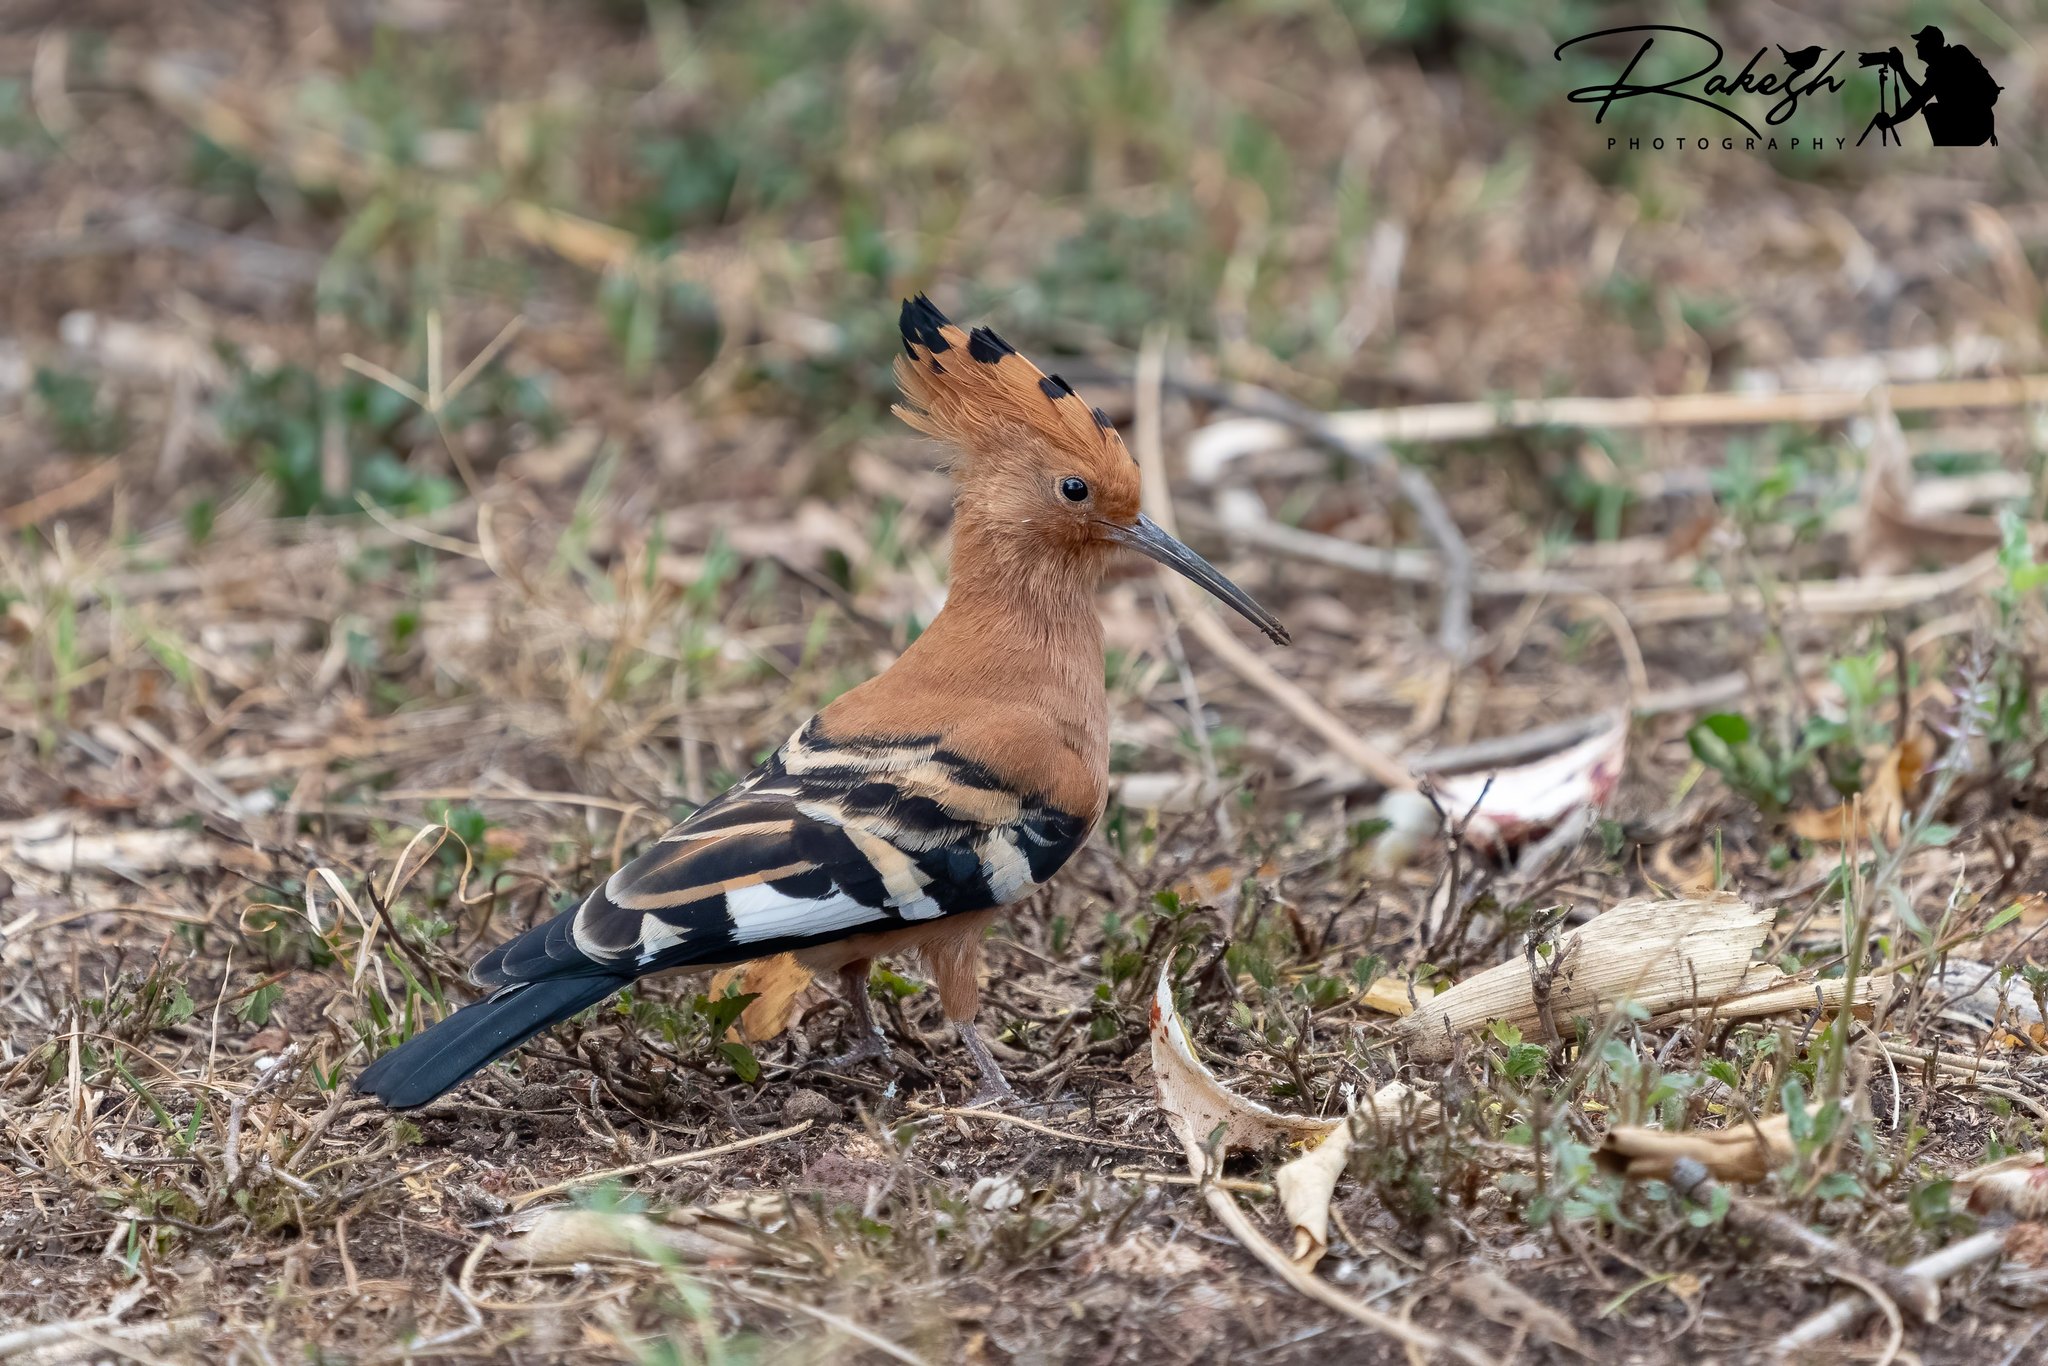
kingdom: Animalia
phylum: Chordata
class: Aves
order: Bucerotiformes
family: Upupidae
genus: Upupa
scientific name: Upupa africana
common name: African hoopoe
